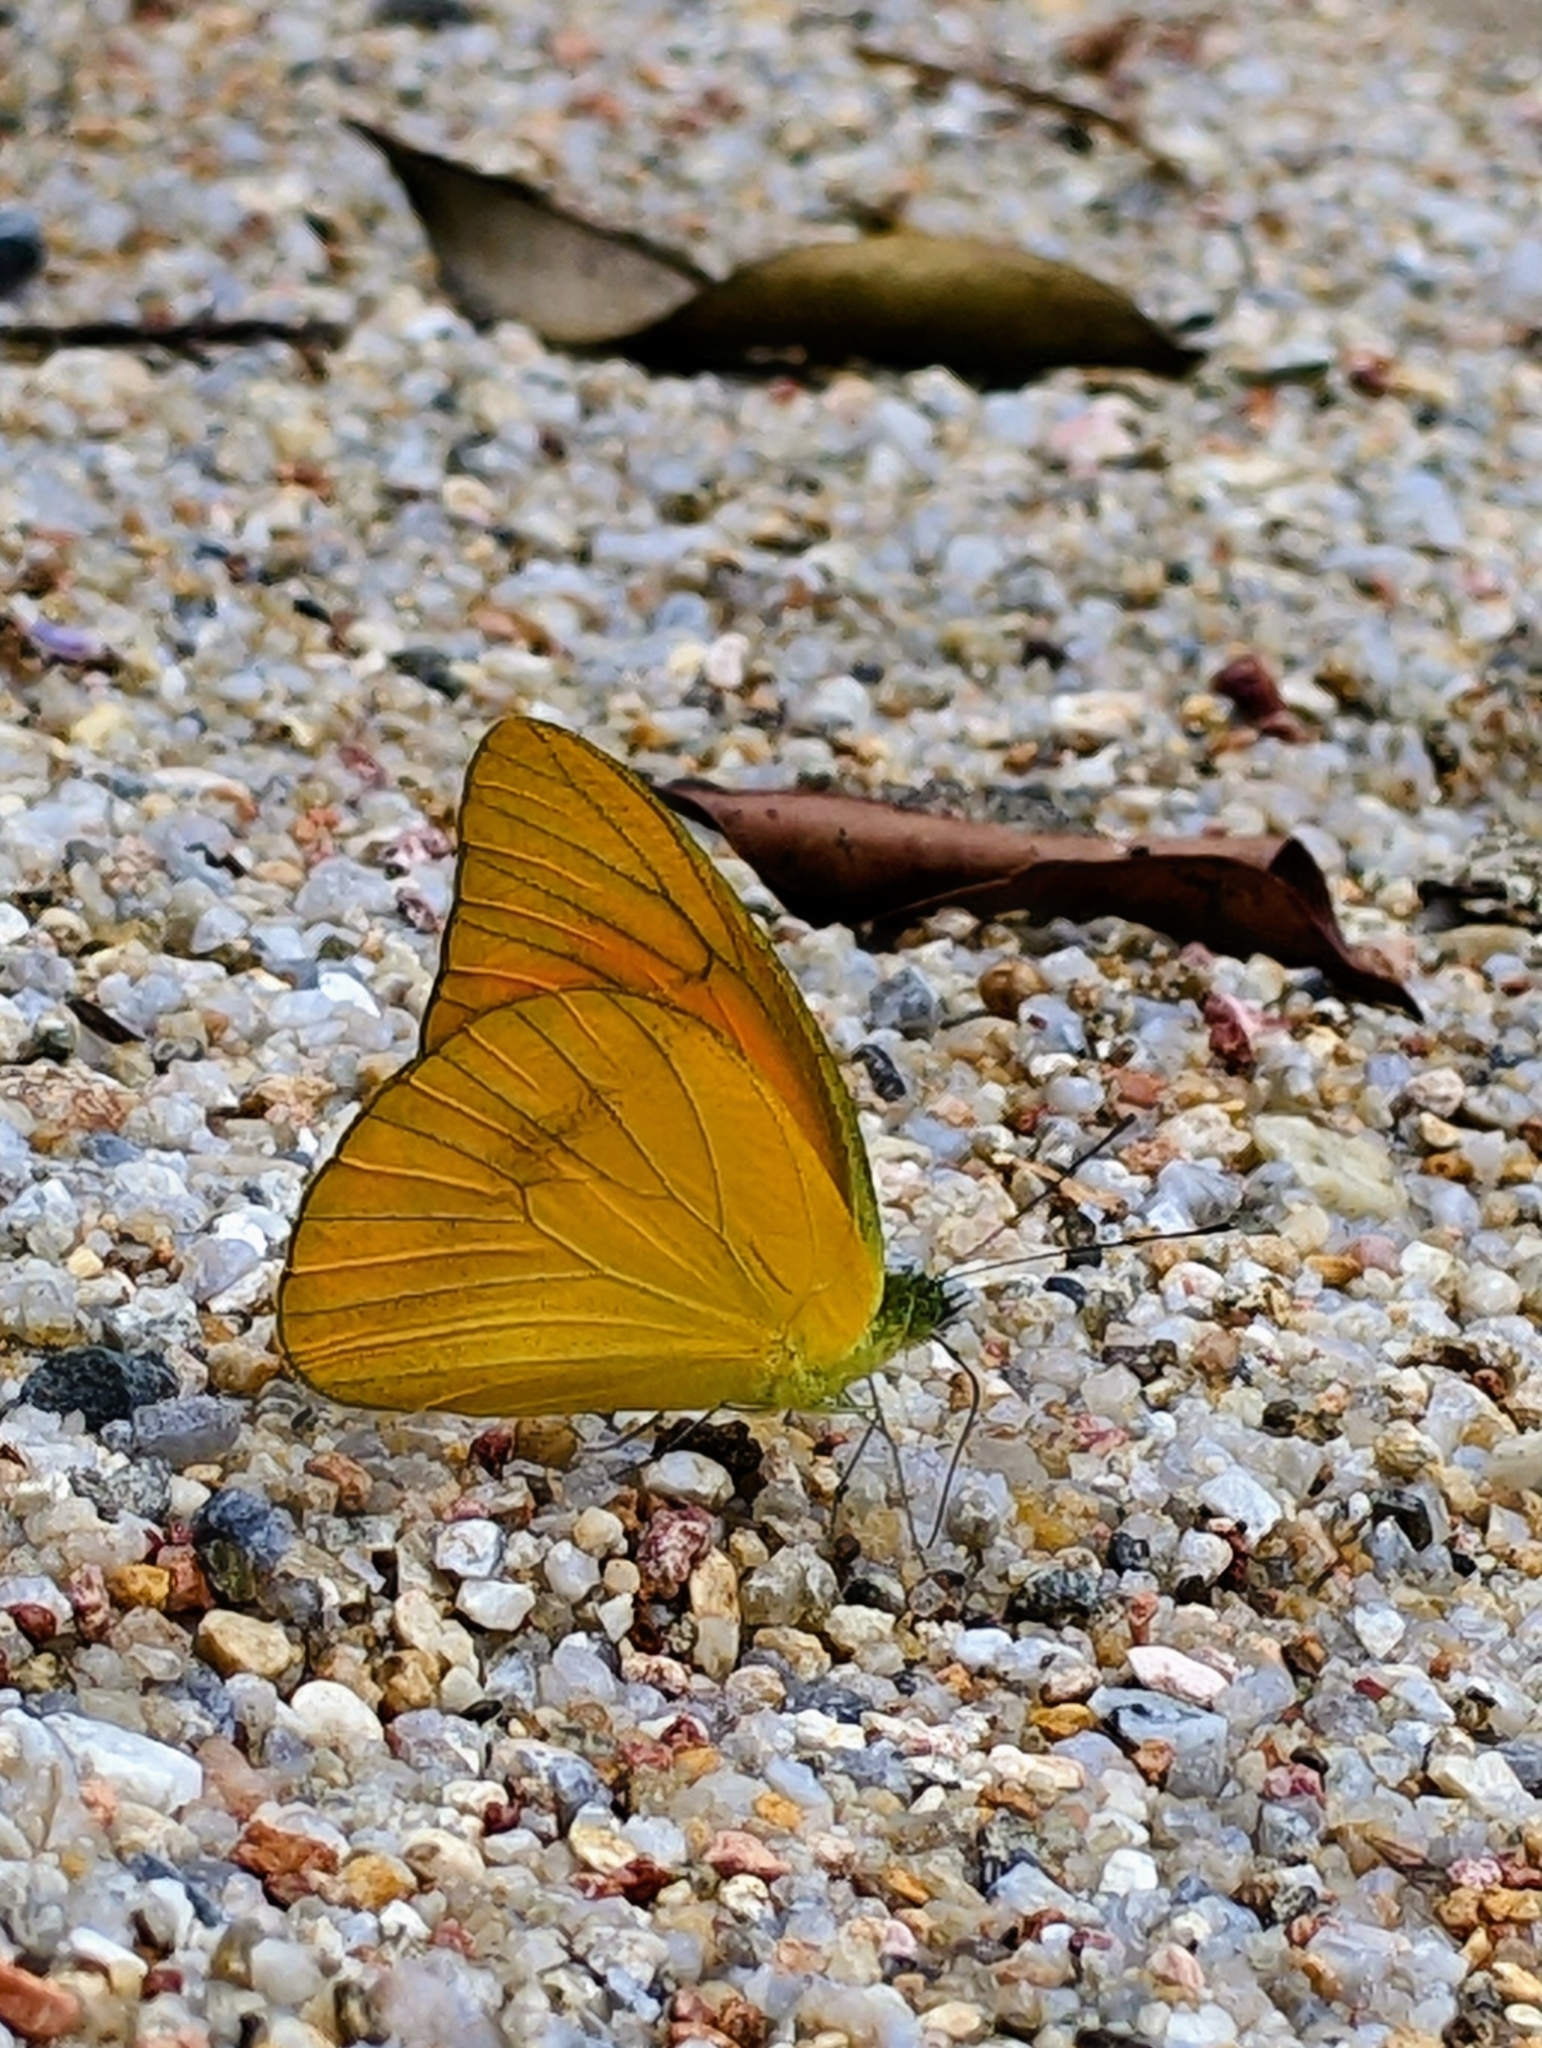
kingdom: Animalia
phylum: Arthropoda
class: Insecta
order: Lepidoptera
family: Pieridae
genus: Appias
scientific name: Appias nero
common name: Orange albatross
